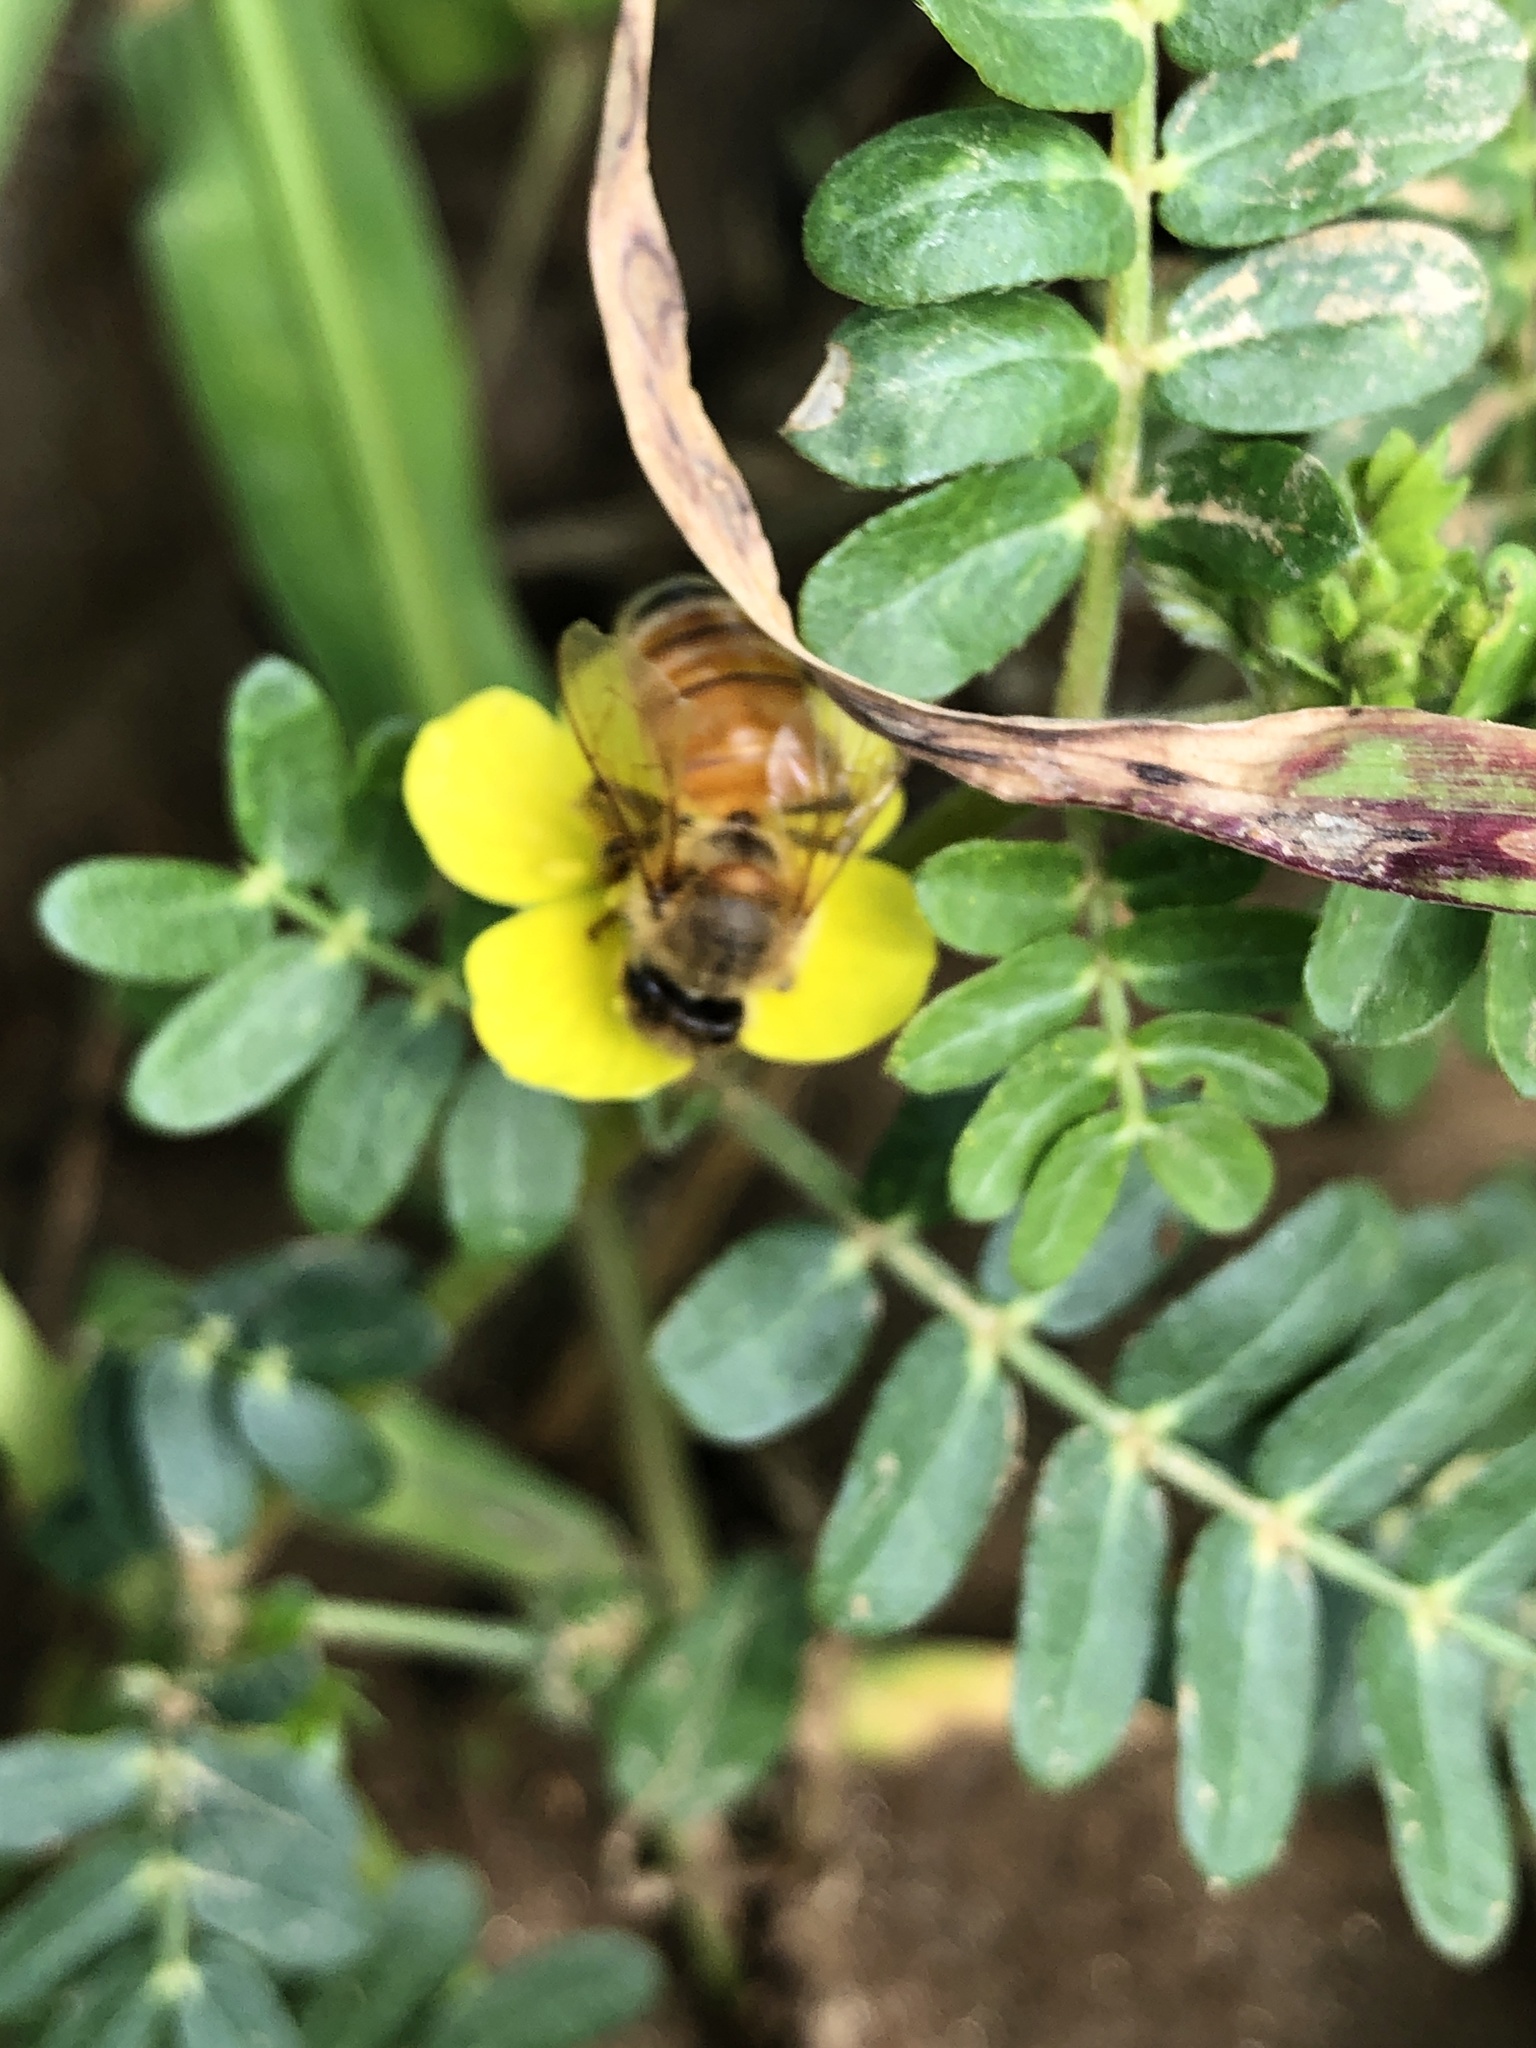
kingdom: Animalia
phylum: Arthropoda
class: Insecta
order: Hymenoptera
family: Apidae
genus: Apis
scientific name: Apis mellifera
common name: Honey bee
